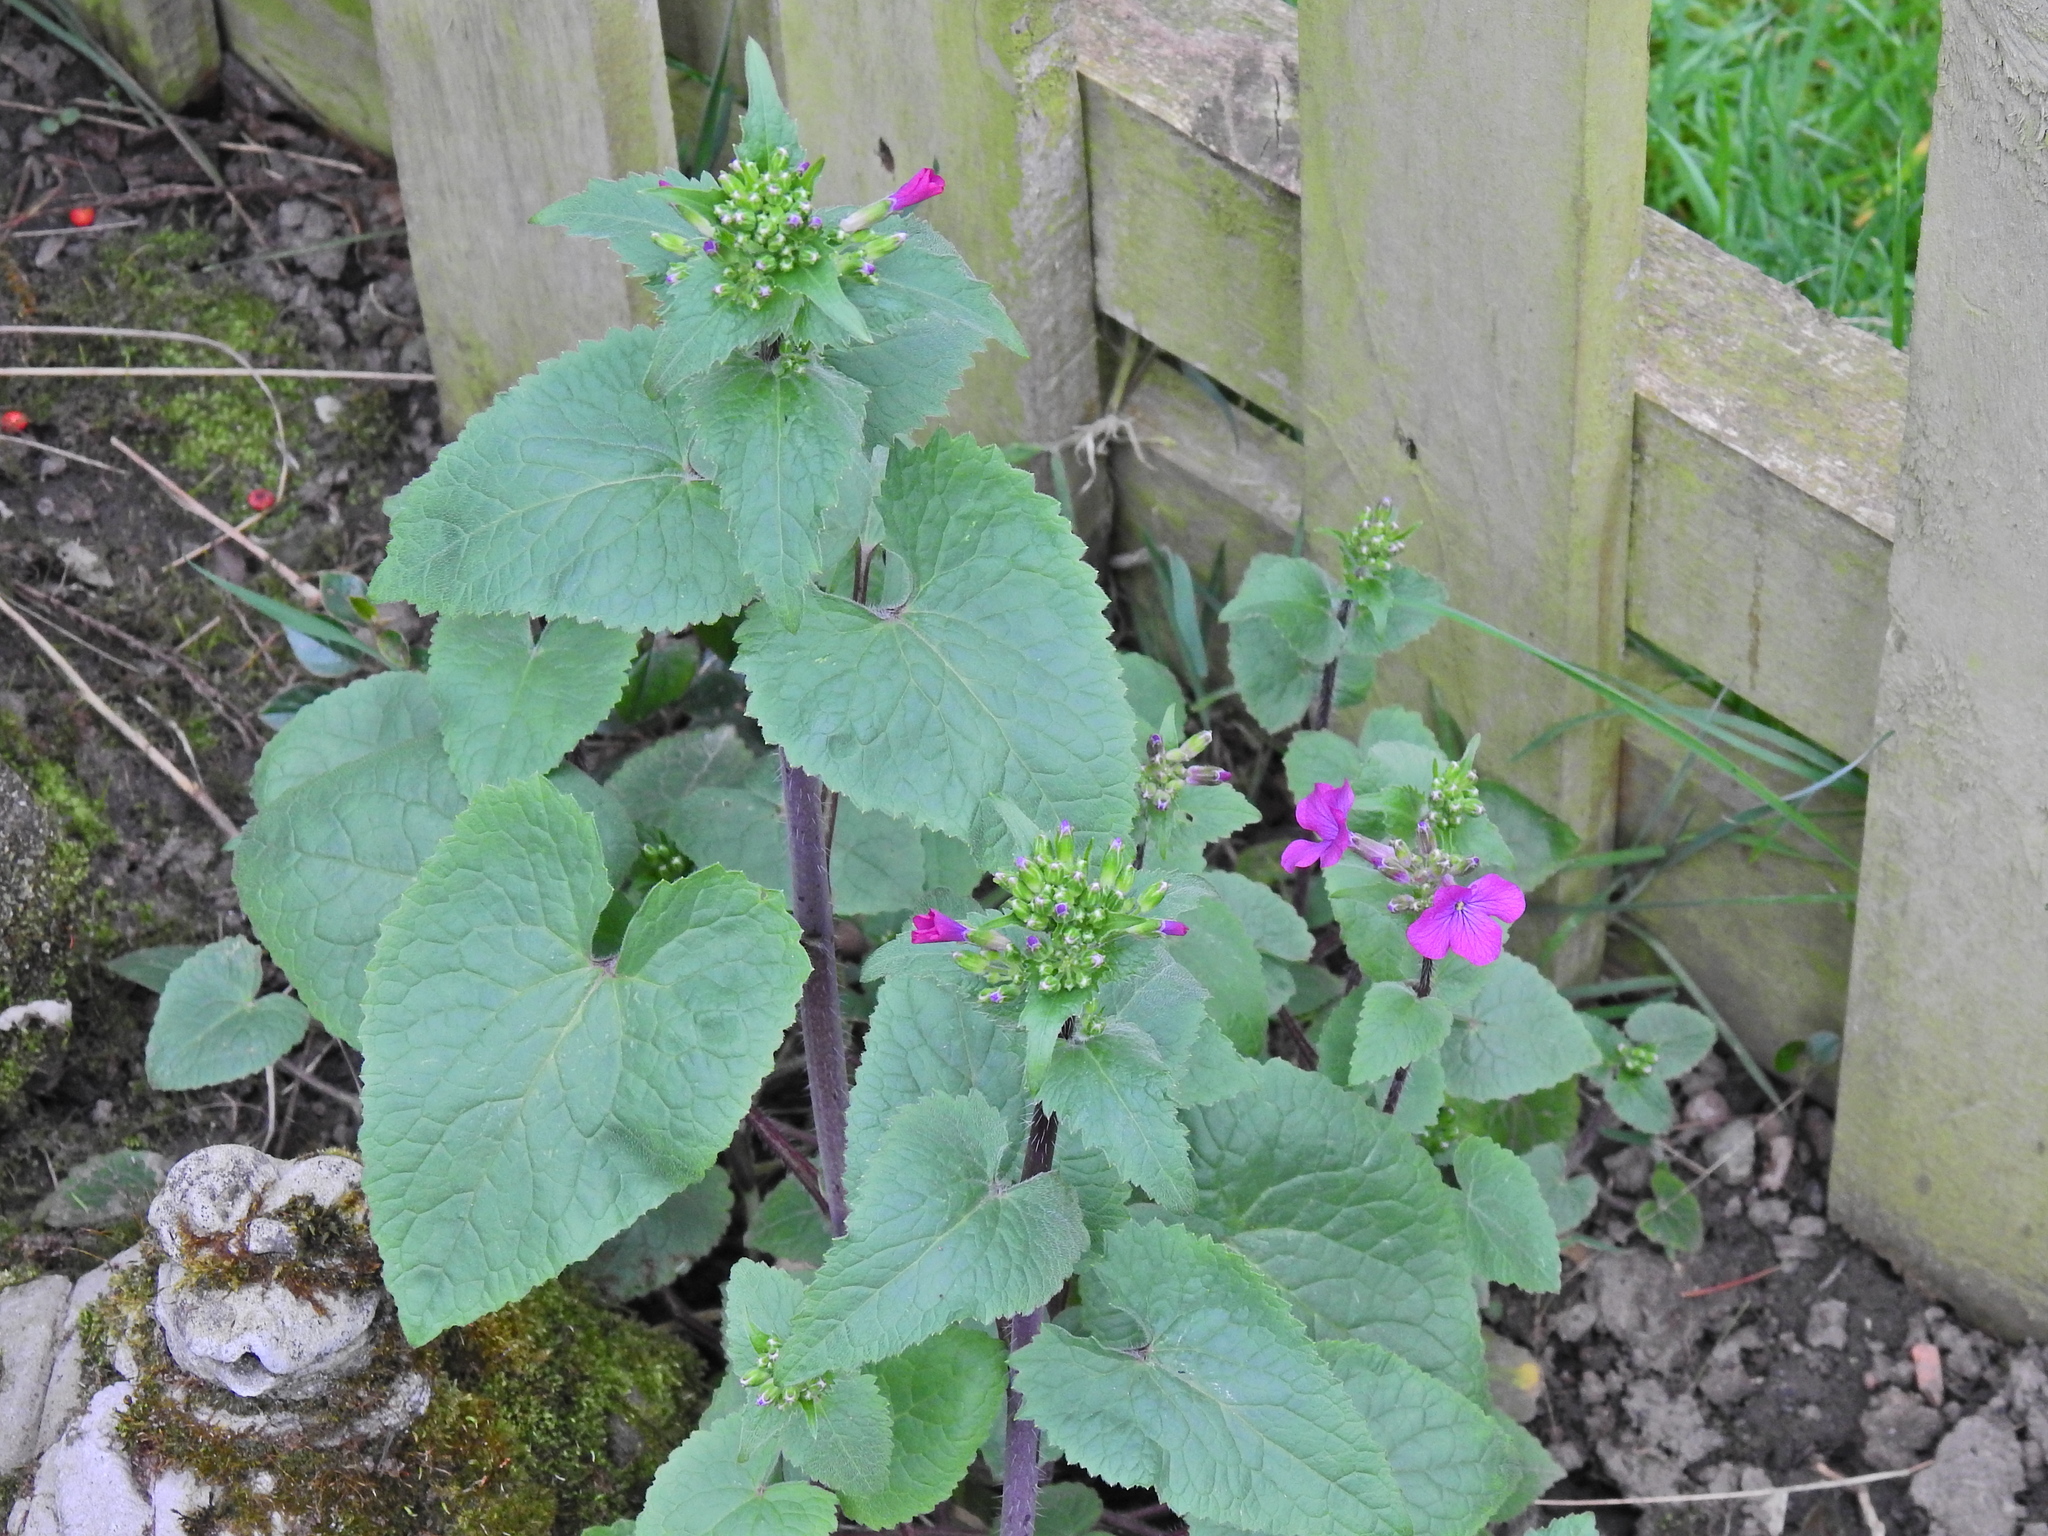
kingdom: Plantae
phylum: Tracheophyta
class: Magnoliopsida
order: Brassicales
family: Brassicaceae
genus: Lunaria
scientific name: Lunaria annua
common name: Honesty
